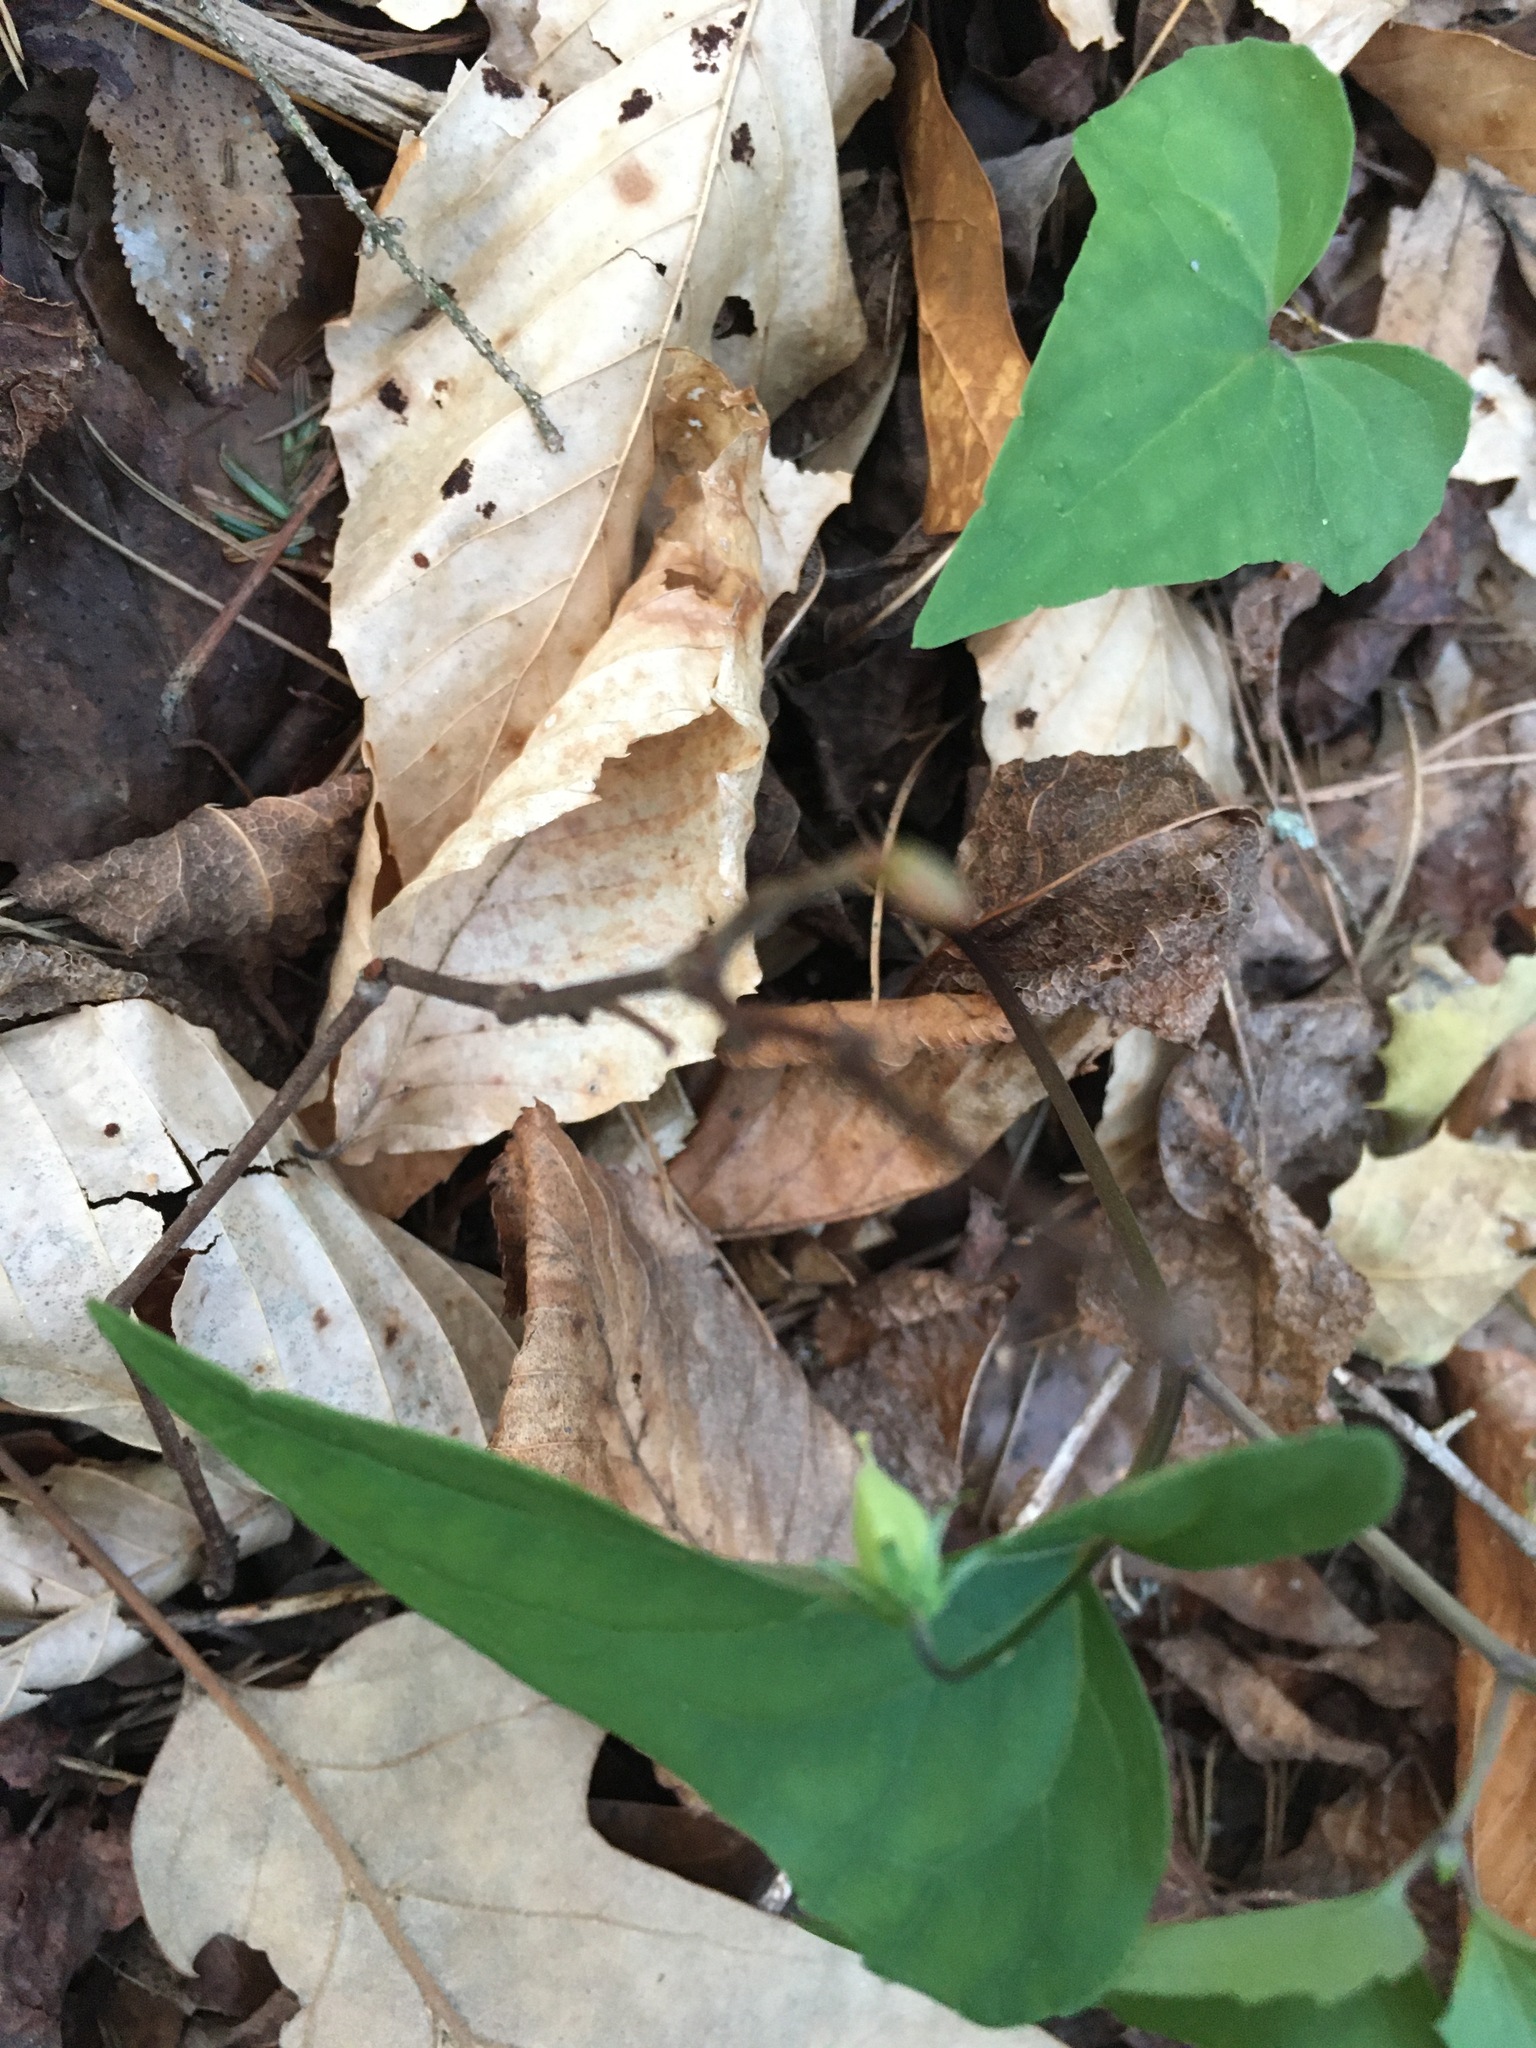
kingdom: Plantae
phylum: Tracheophyta
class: Magnoliopsida
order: Malpighiales
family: Violaceae
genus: Viola
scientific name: Viola hastata
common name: Spear-leaf violet
